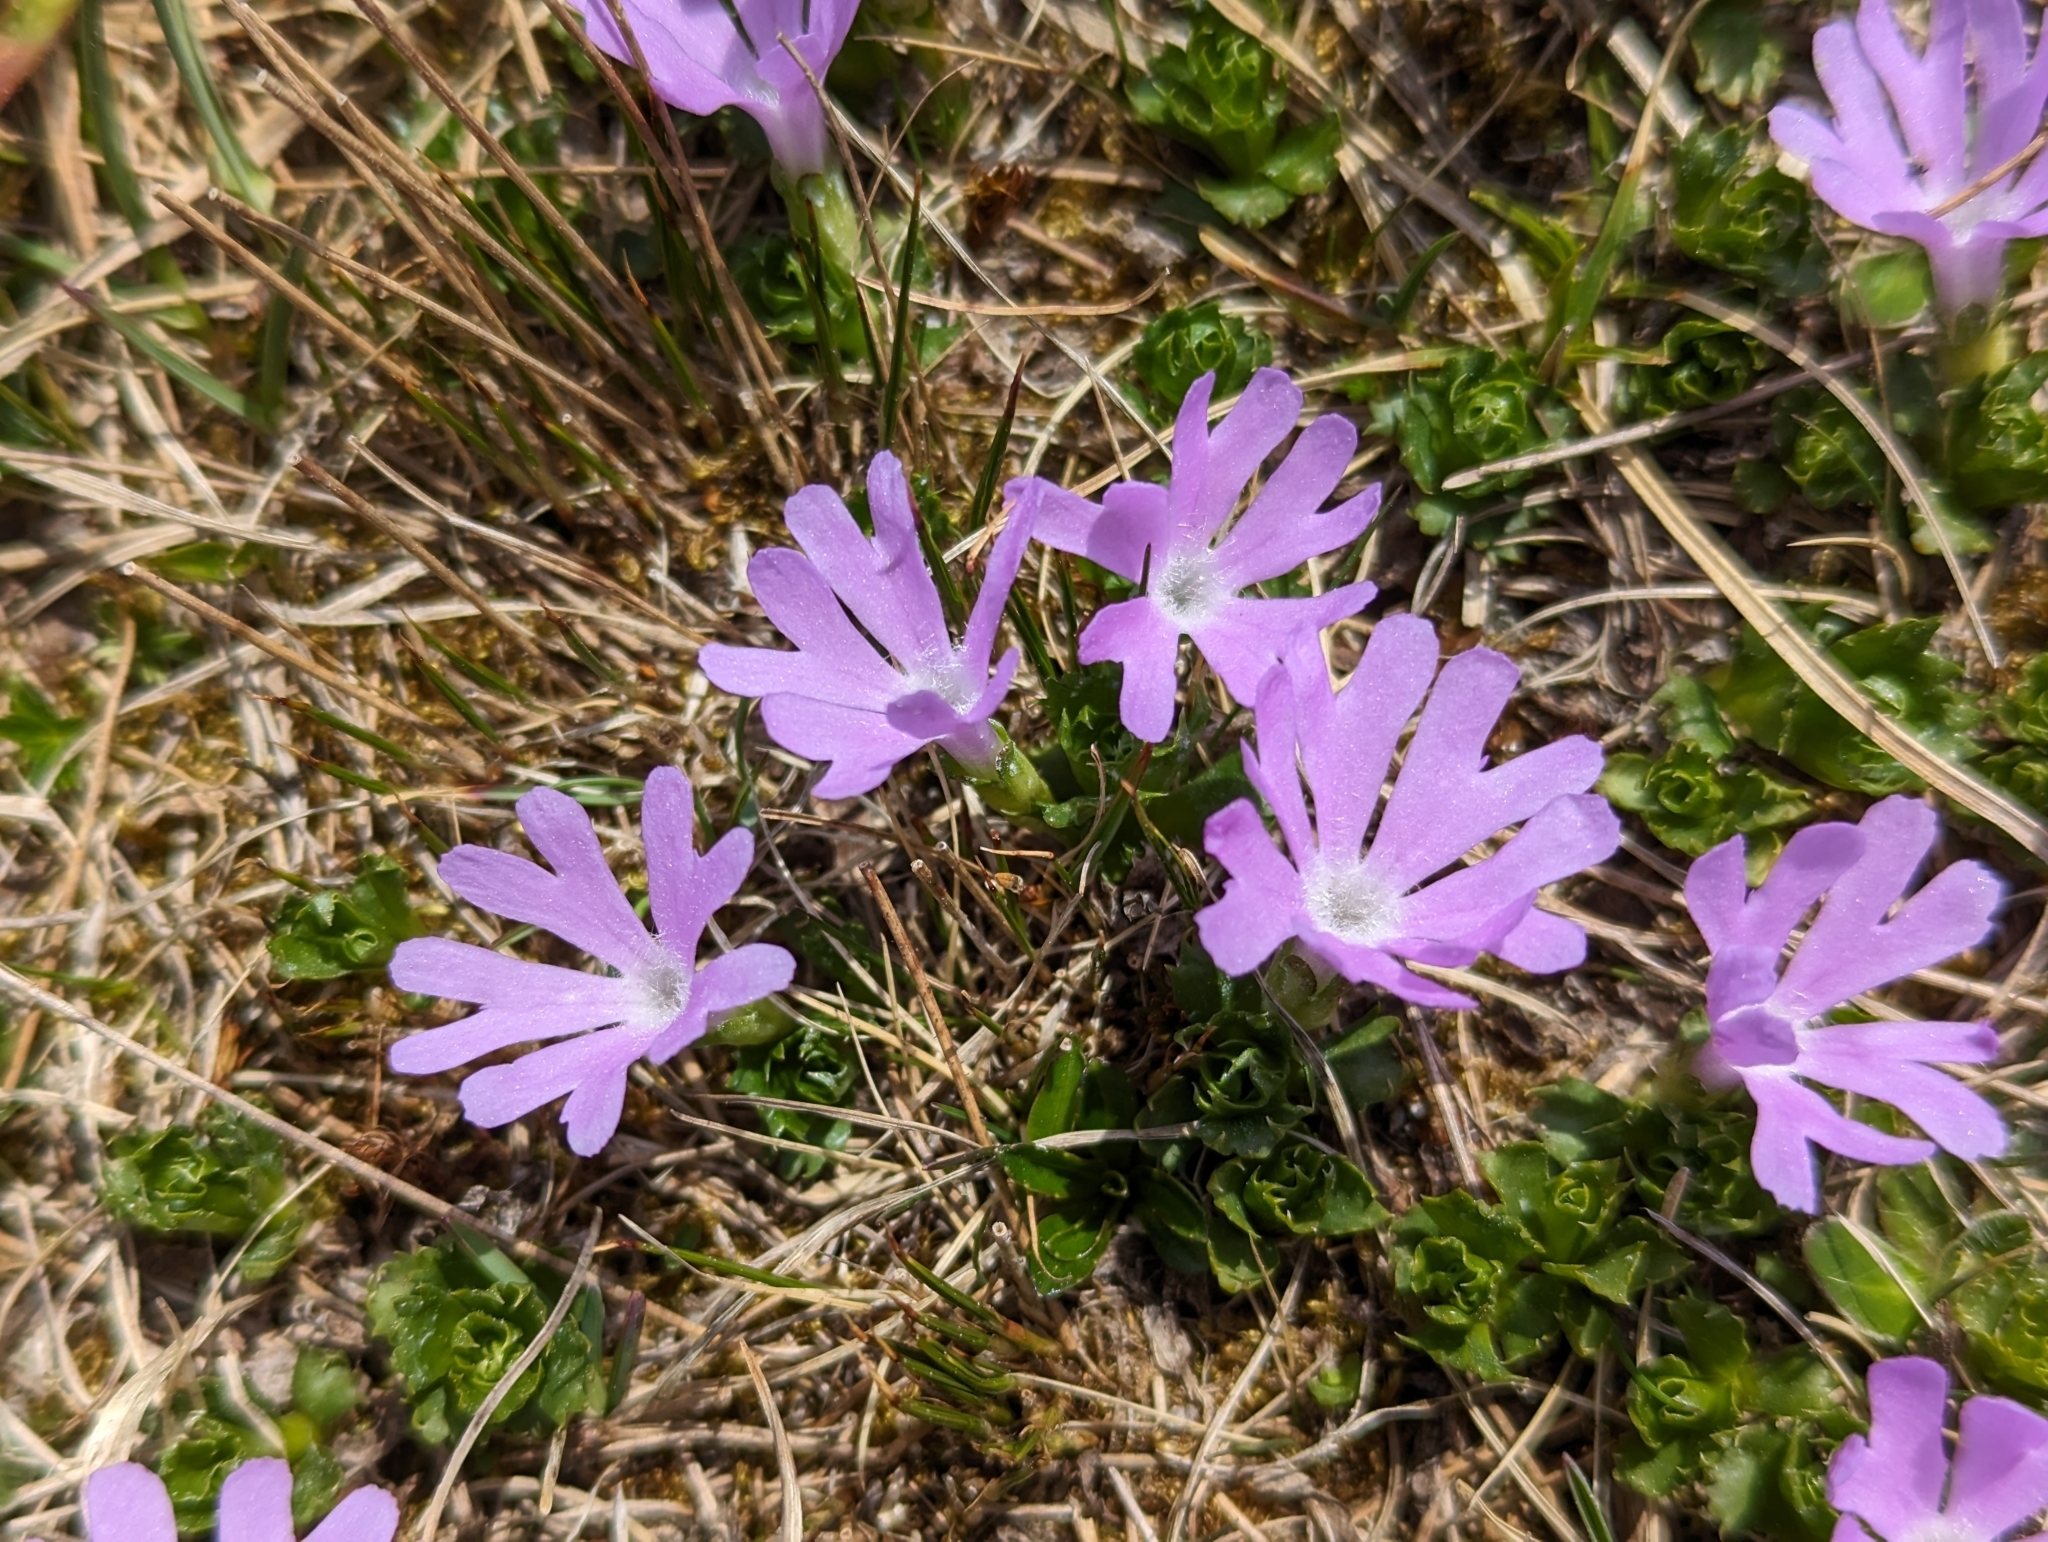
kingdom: Plantae
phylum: Tracheophyta
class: Magnoliopsida
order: Ericales
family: Primulaceae
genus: Primula
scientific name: Primula minima
